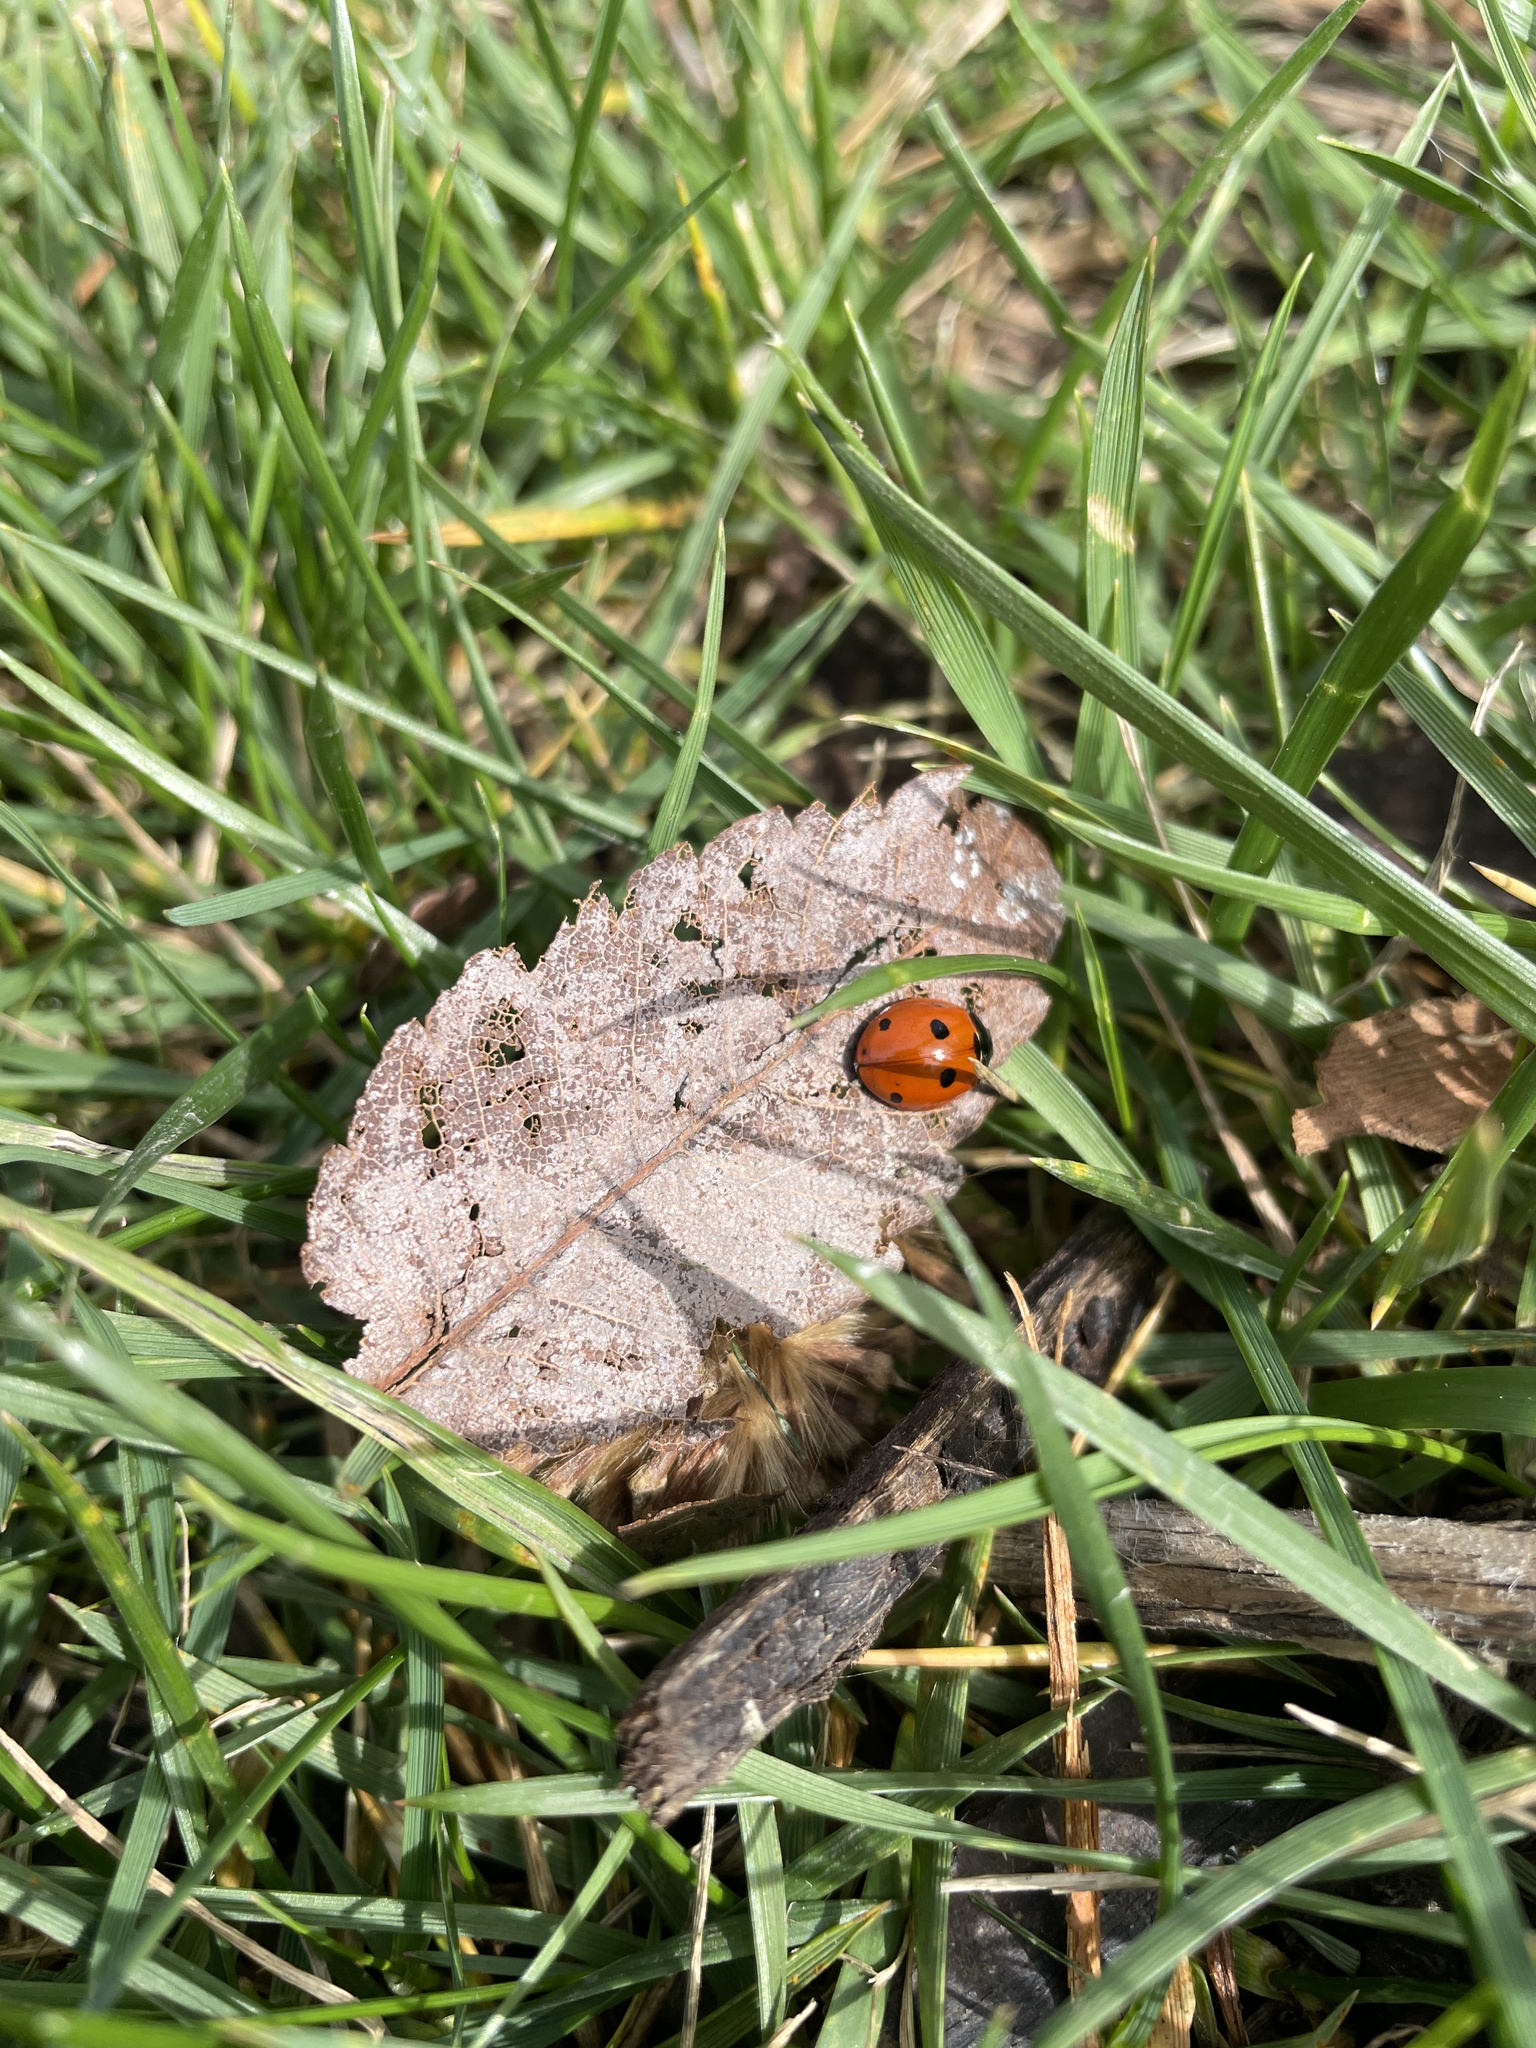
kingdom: Animalia
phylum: Arthropoda
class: Insecta
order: Coleoptera
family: Coccinellidae
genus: Coccinella
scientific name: Coccinella septempunctata
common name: Sevenspotted lady beetle
